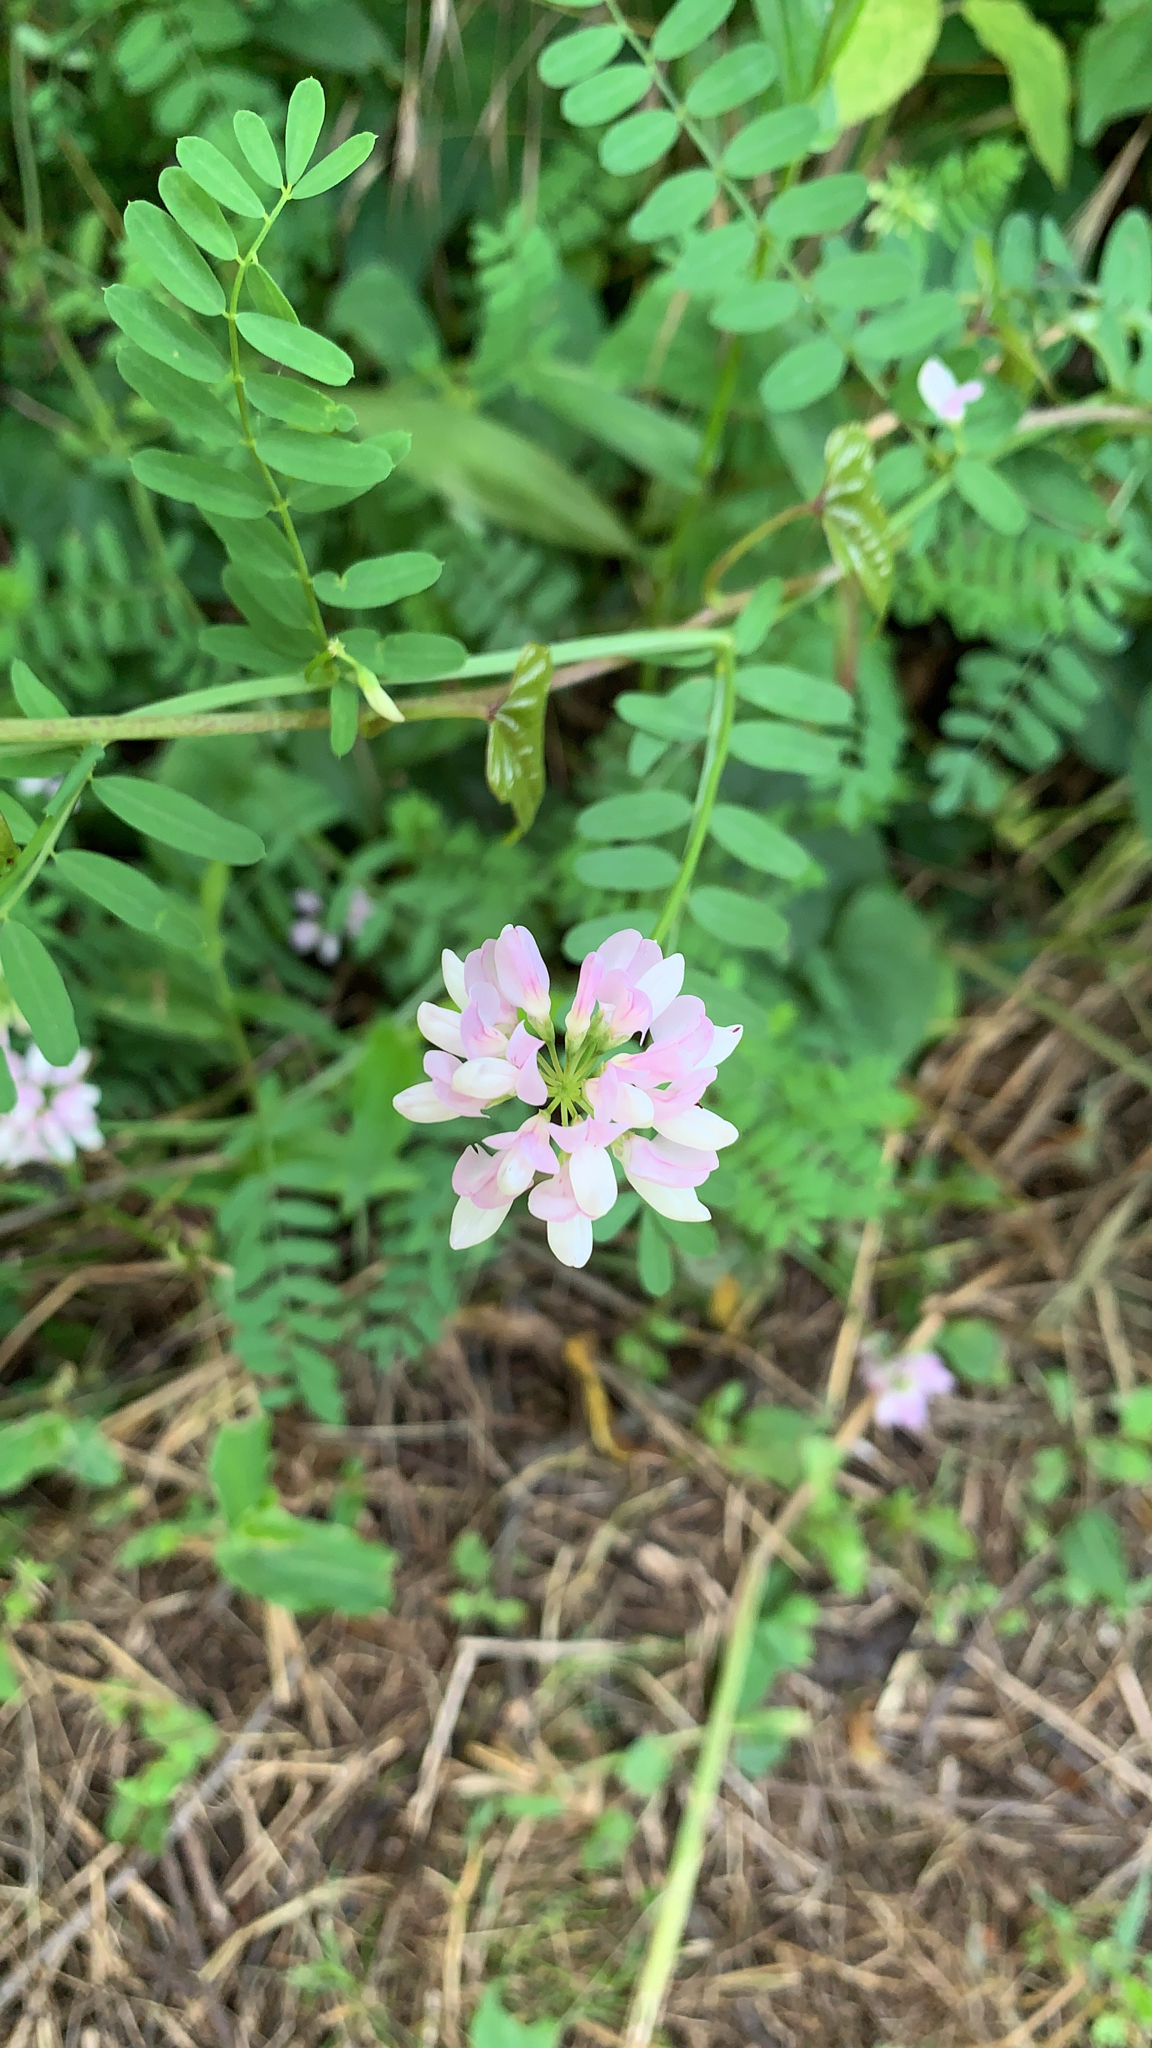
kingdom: Plantae
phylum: Tracheophyta
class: Magnoliopsida
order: Fabales
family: Fabaceae
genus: Coronilla
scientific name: Coronilla varia
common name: Crownvetch
